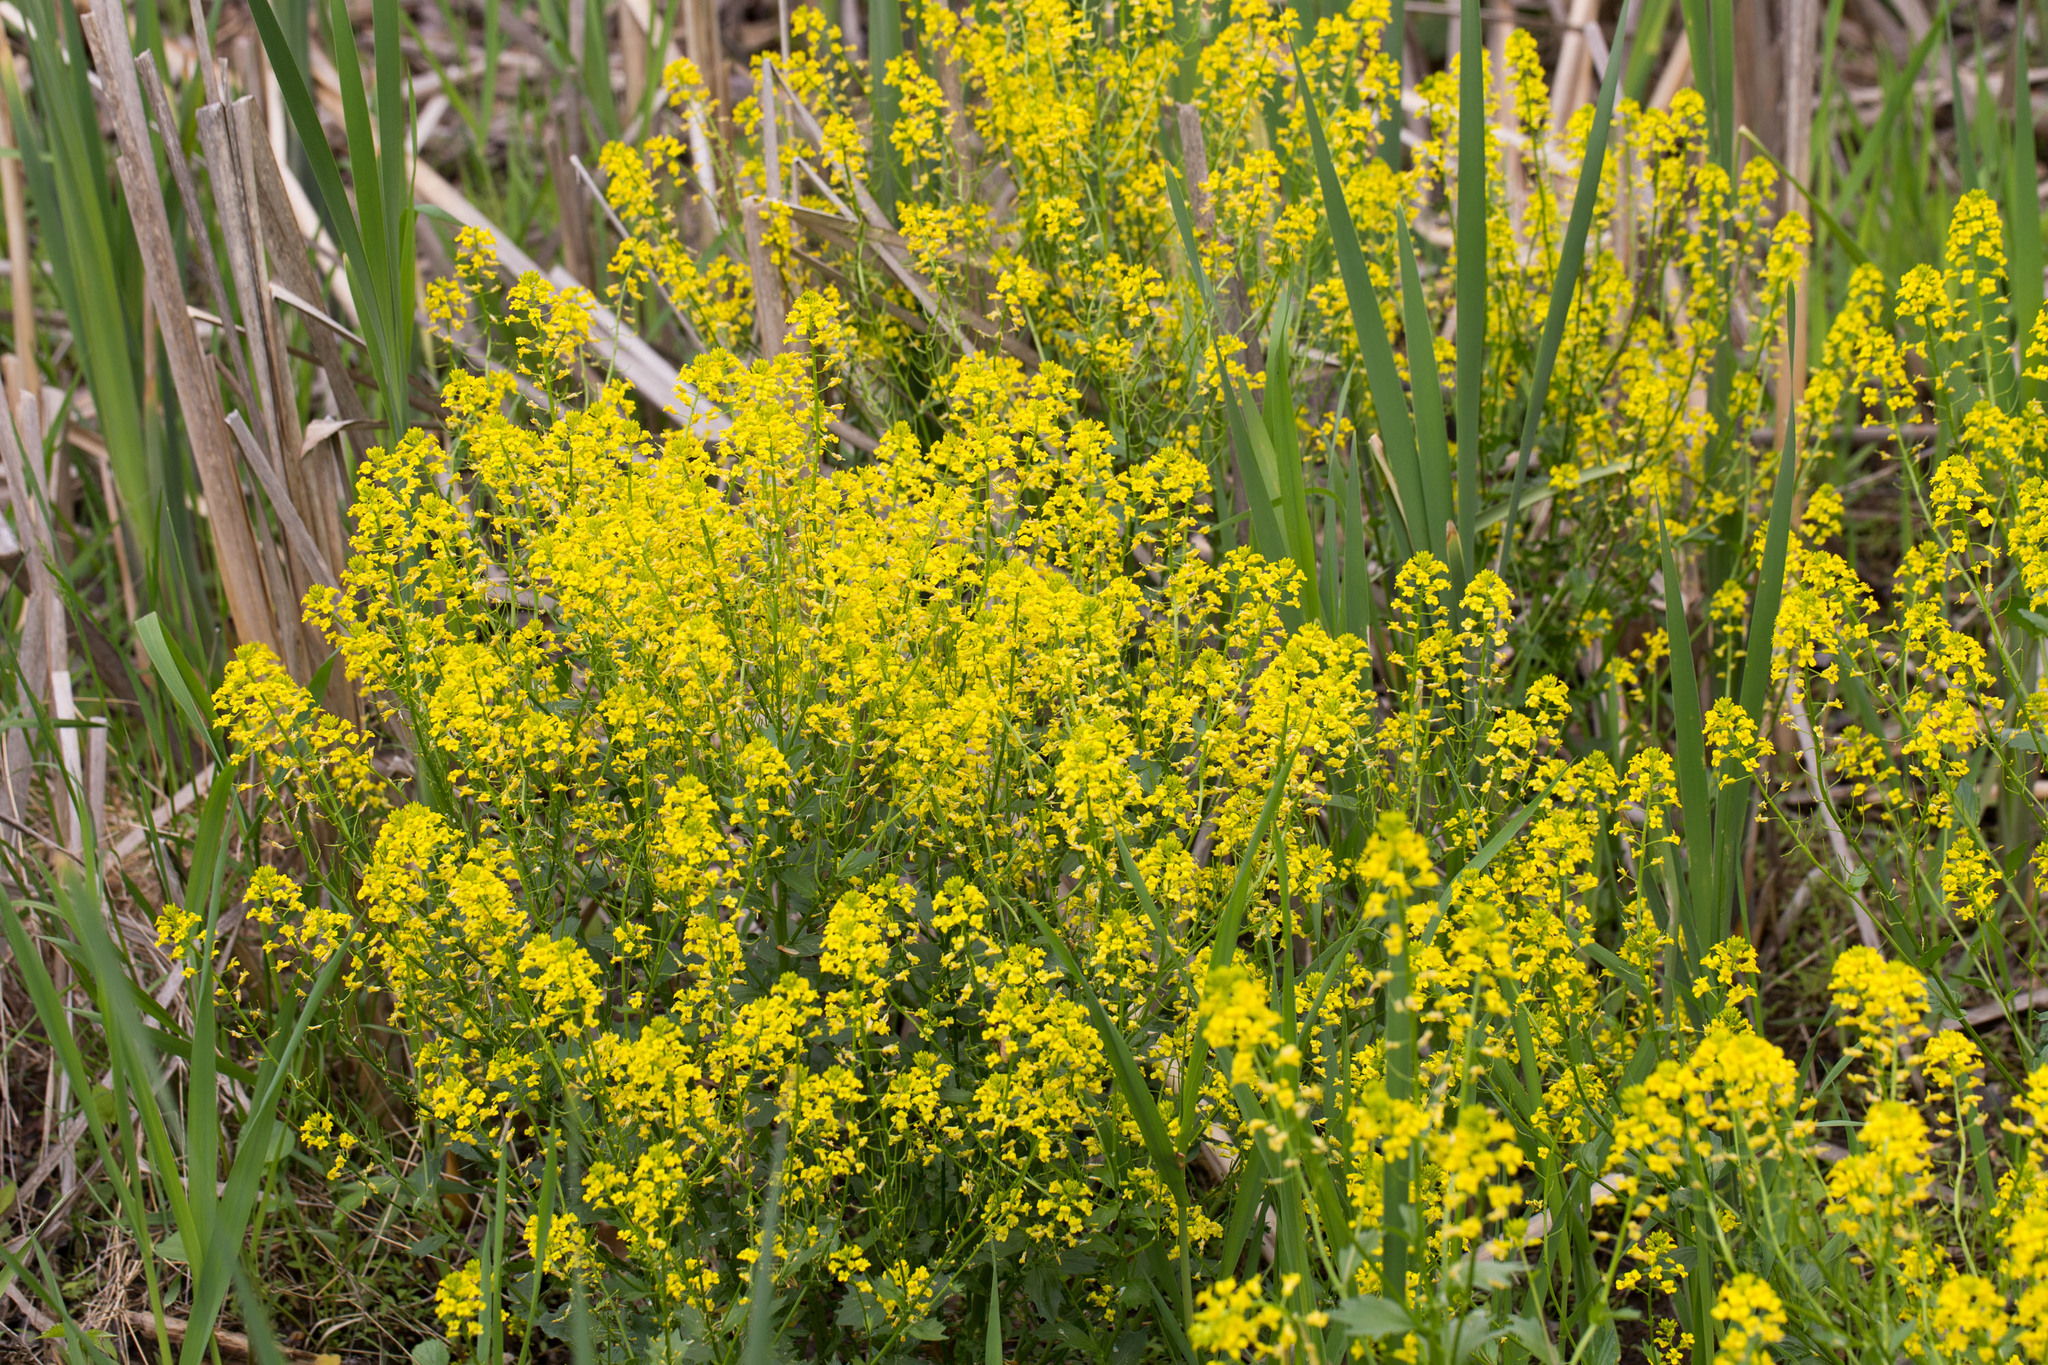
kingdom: Plantae
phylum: Tracheophyta
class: Magnoliopsida
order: Brassicales
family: Brassicaceae
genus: Barbarea
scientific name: Barbarea vulgaris
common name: Cressy-greens
